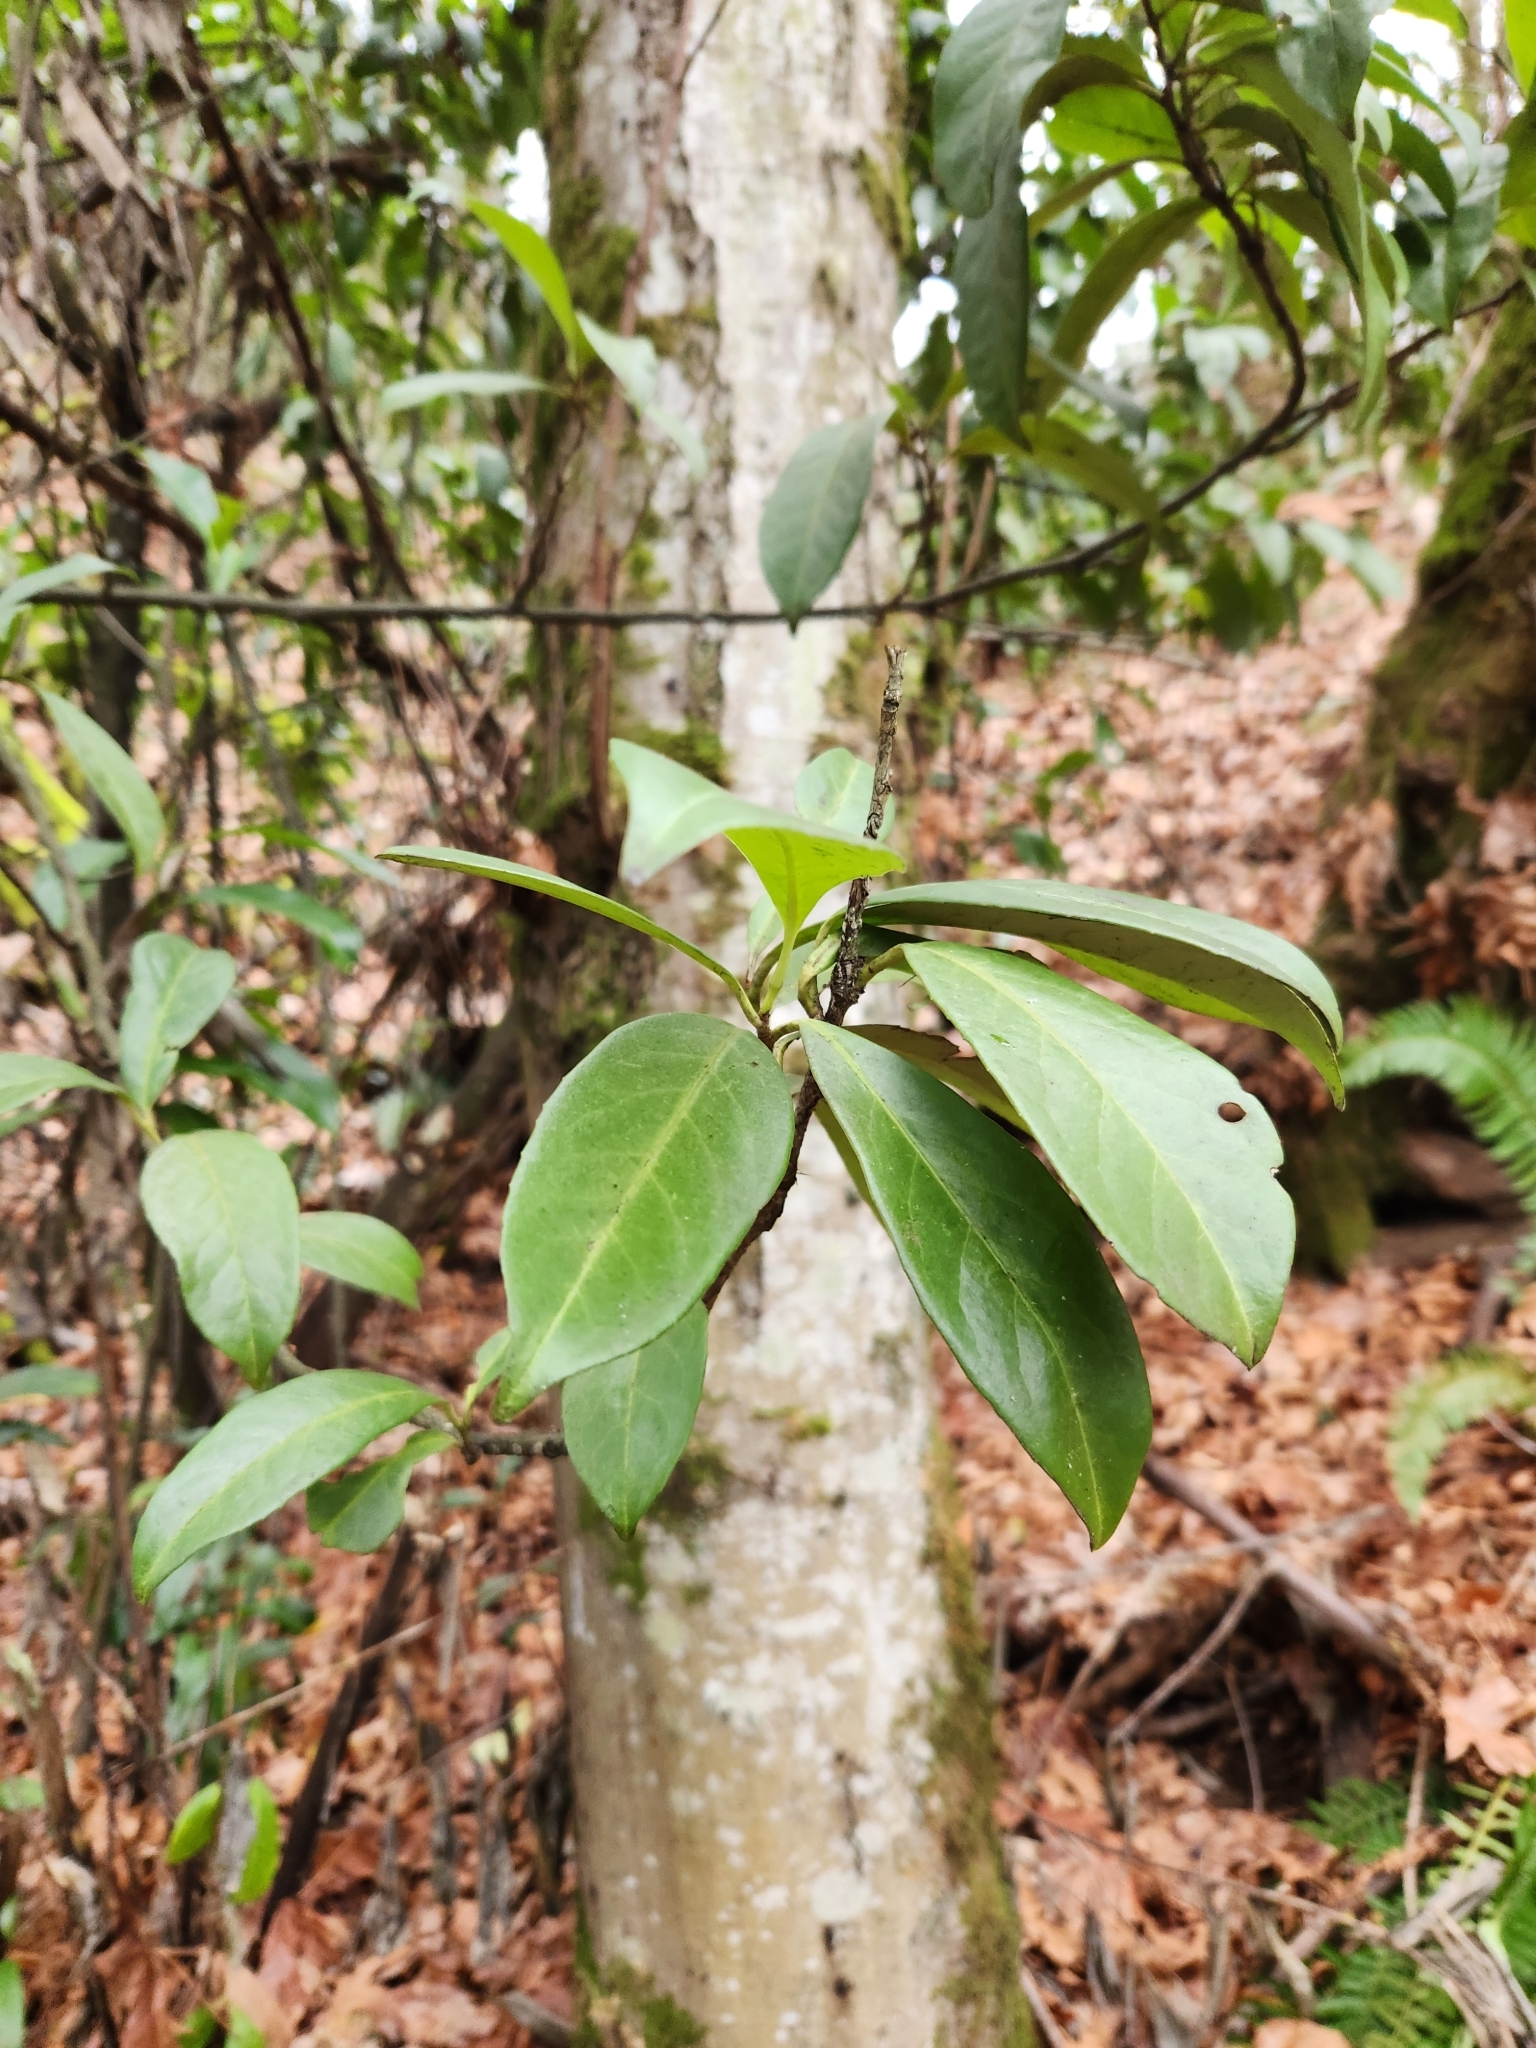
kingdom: Plantae
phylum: Tracheophyta
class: Magnoliopsida
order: Rosales
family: Rosaceae
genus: Prunus
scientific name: Prunus laurocerasus
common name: Cherry laurel
